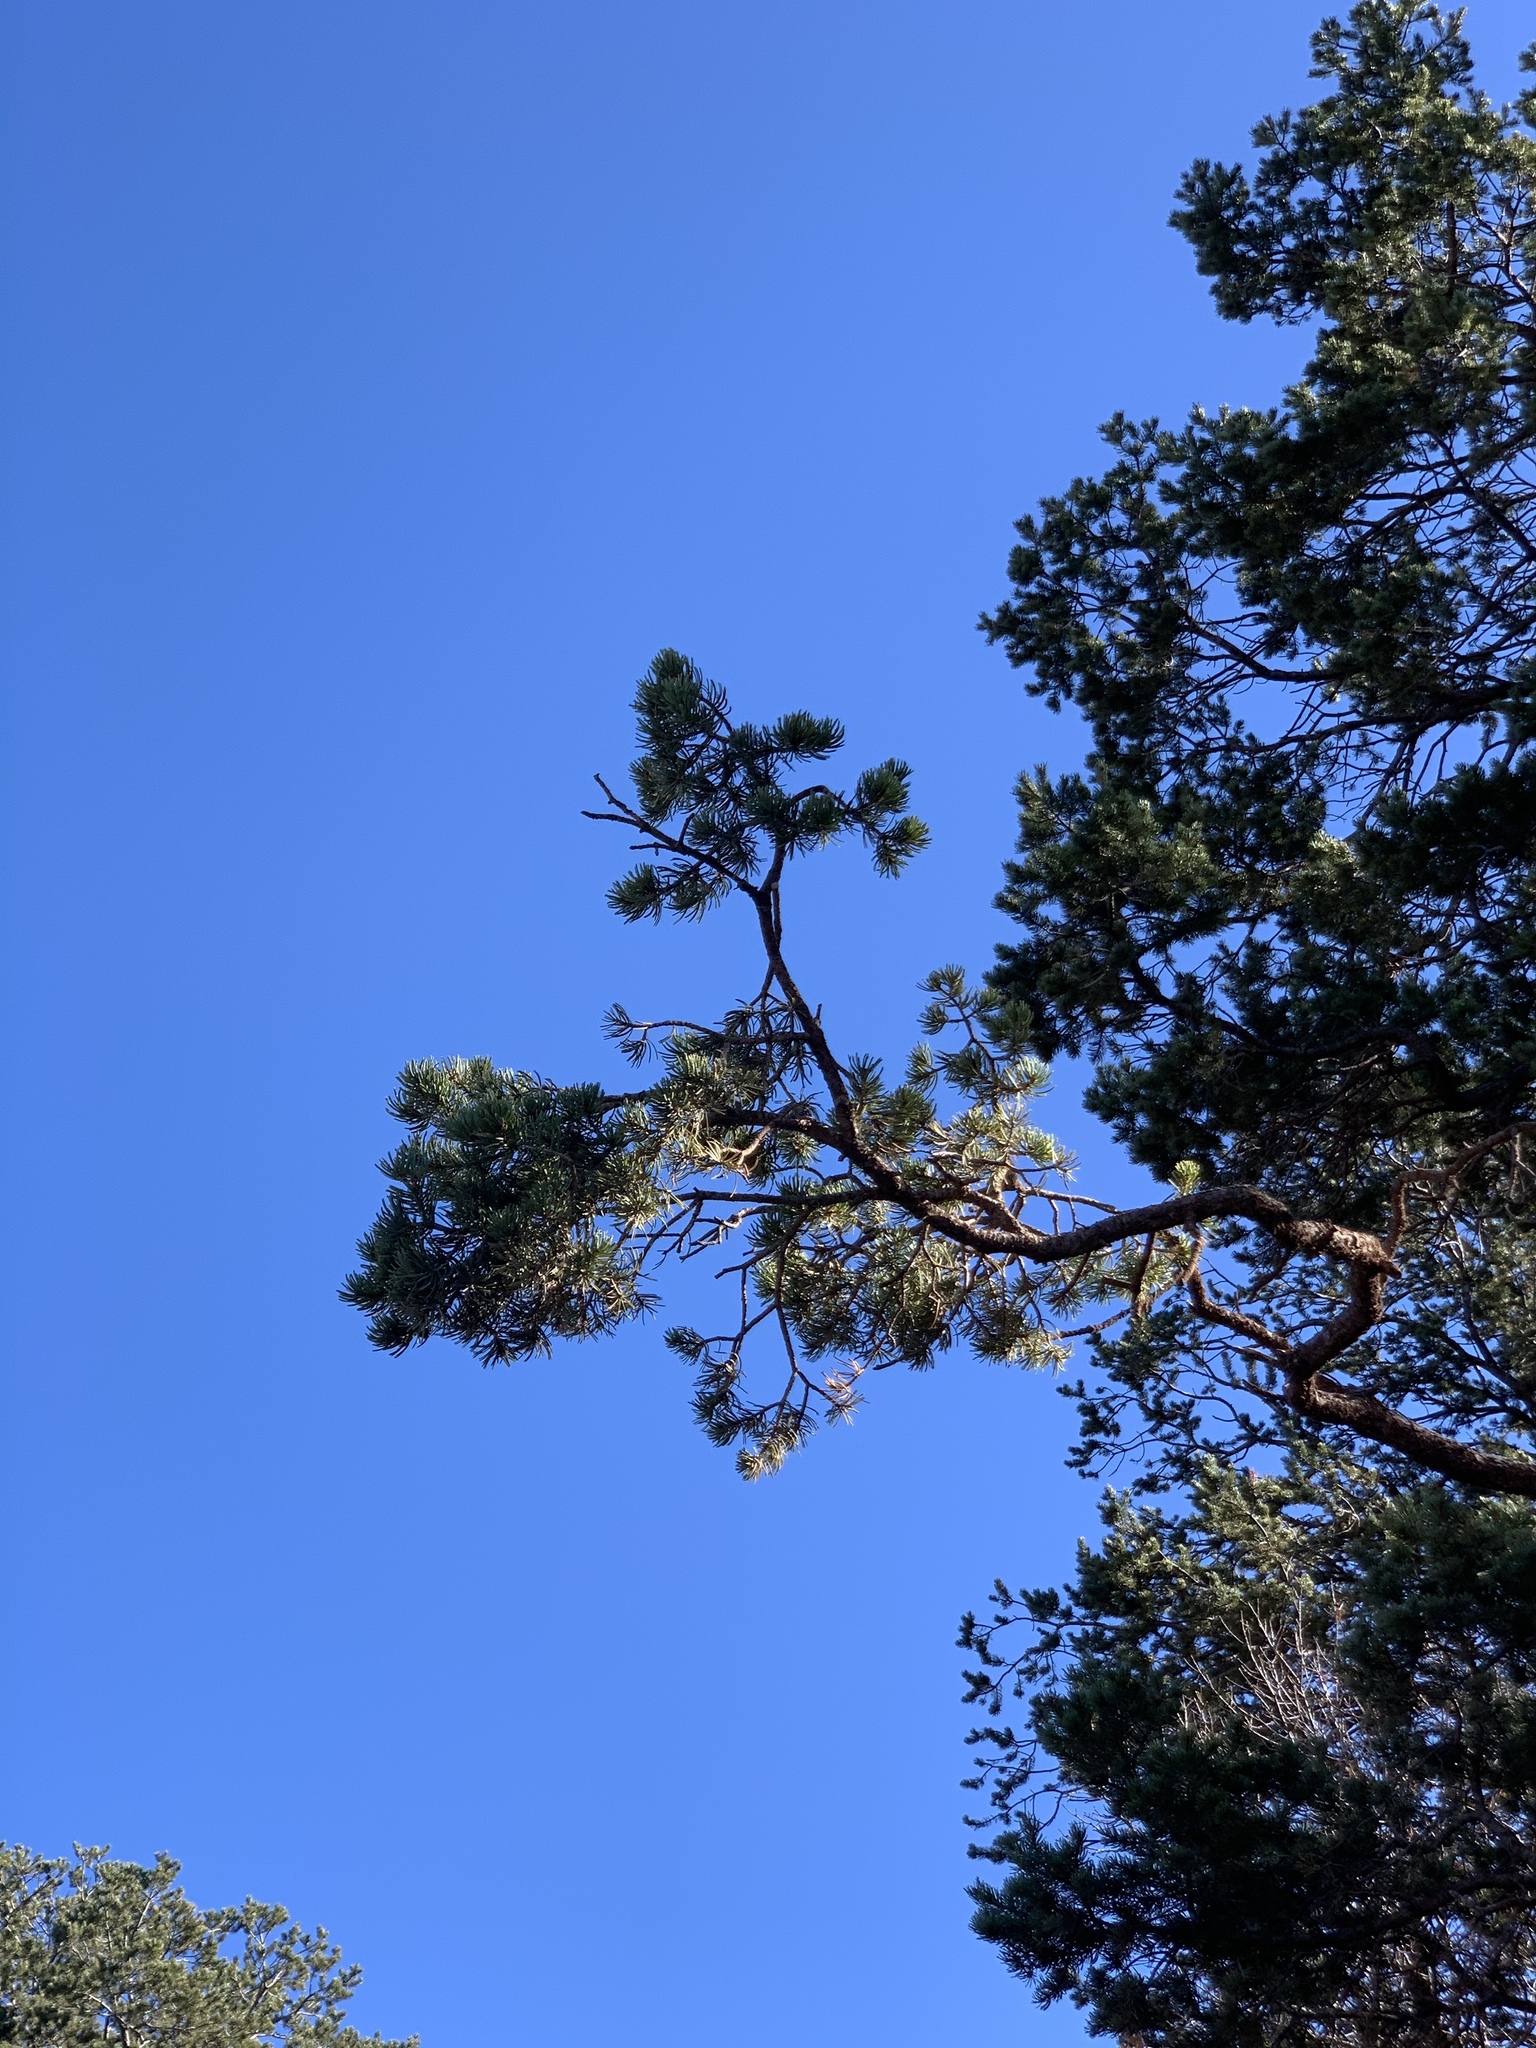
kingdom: Plantae
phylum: Tracheophyta
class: Pinopsida
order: Pinales
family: Pinaceae
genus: Pinus
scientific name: Pinus edulis
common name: Colorado pinyon
